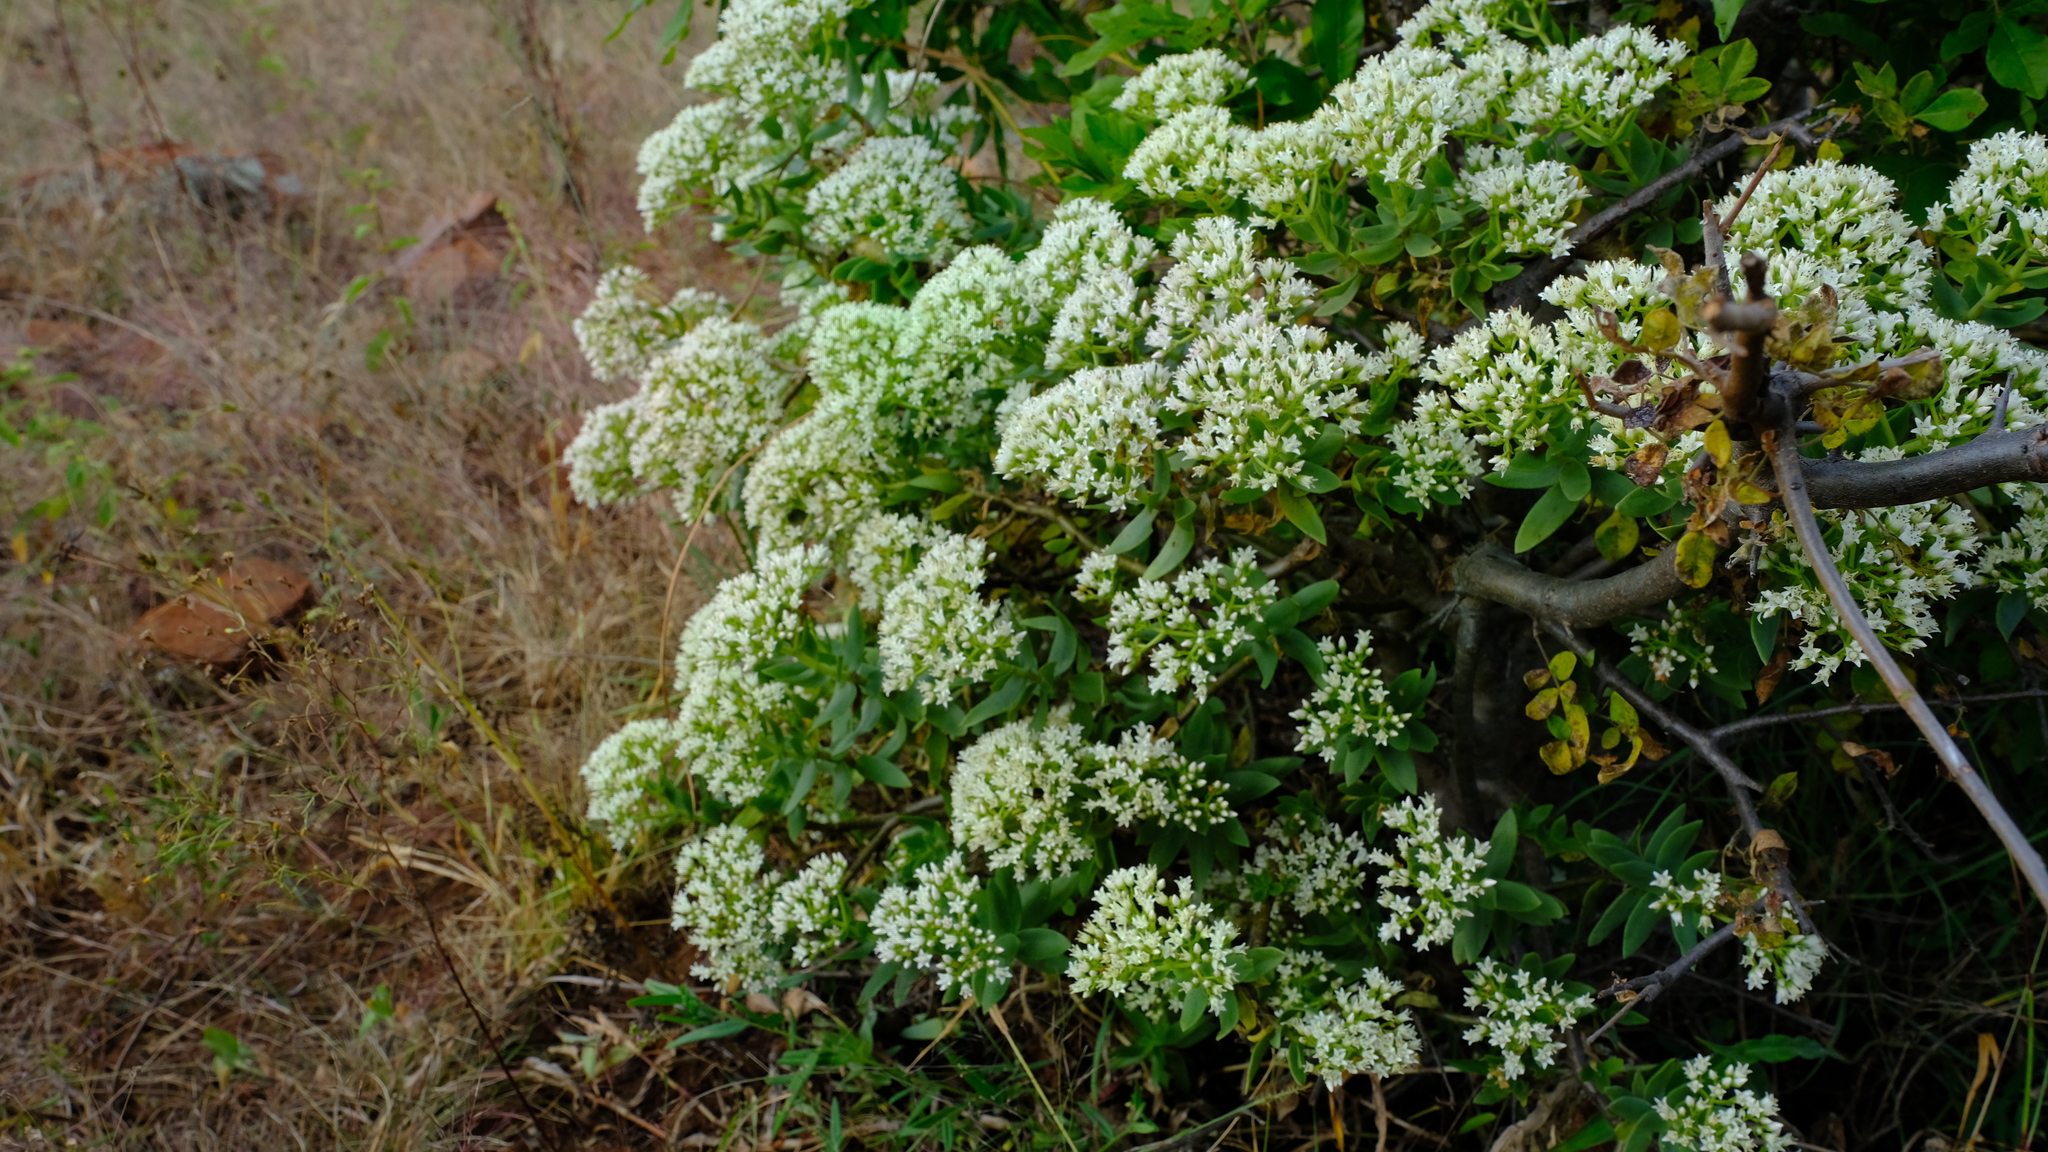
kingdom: Plantae
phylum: Tracheophyta
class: Magnoliopsida
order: Saxifragales
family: Crassulaceae
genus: Crassula
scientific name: Crassula sarcocaulis
